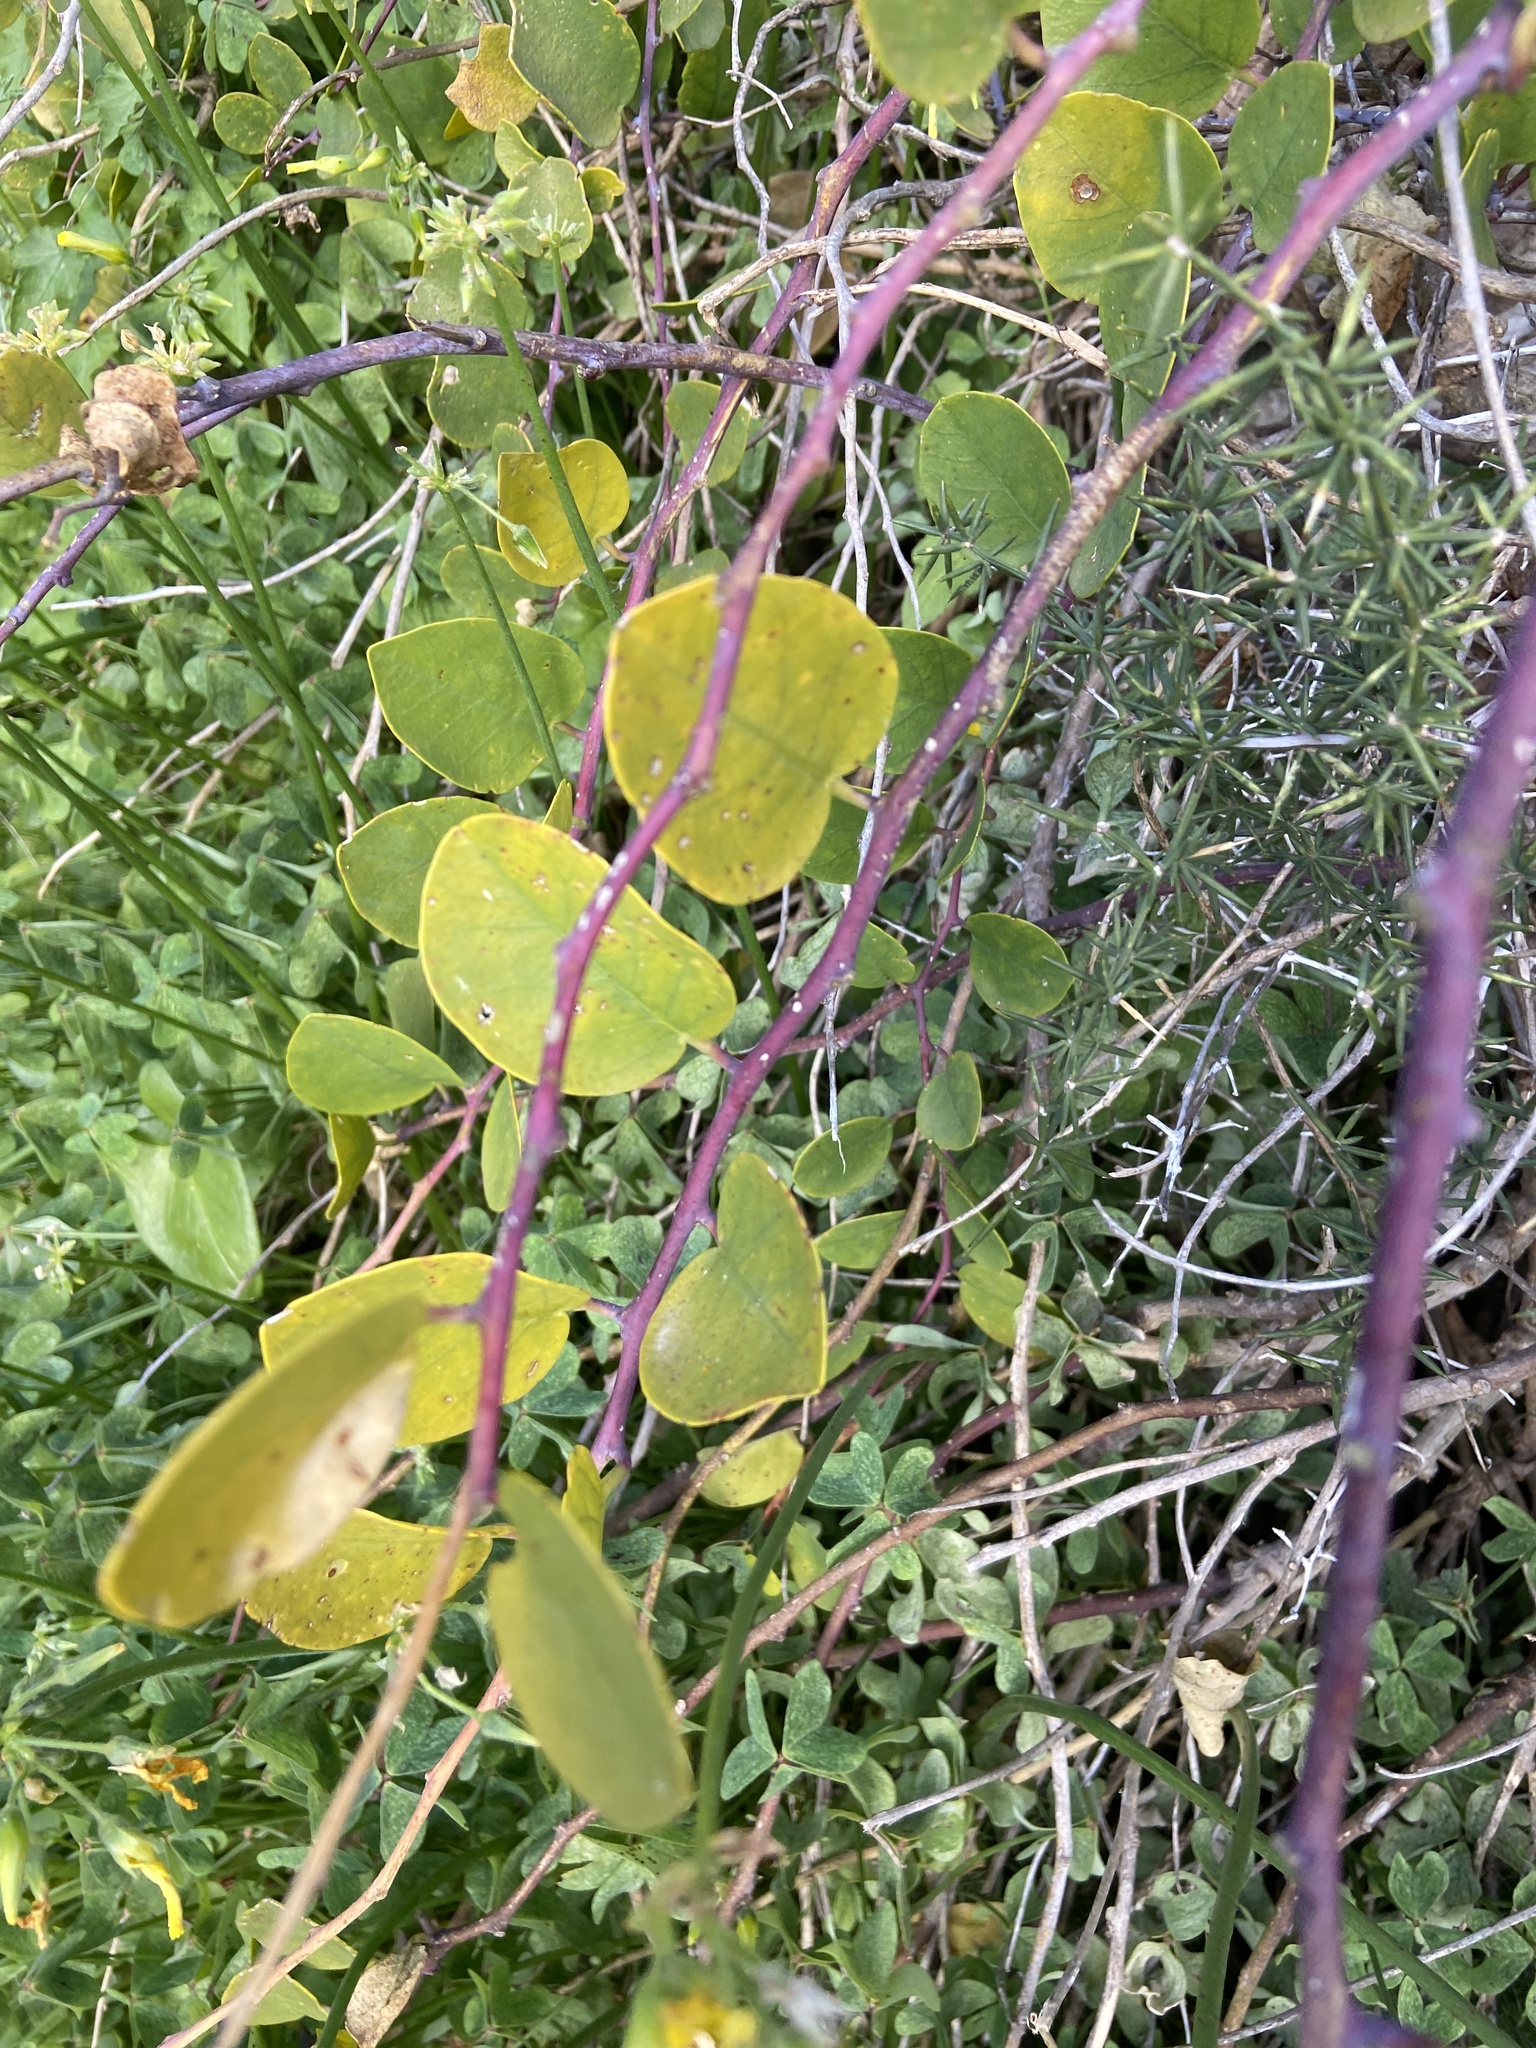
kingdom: Plantae
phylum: Tracheophyta
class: Magnoliopsida
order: Brassicales
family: Capparaceae
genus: Capparis
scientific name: Capparis orientalis
